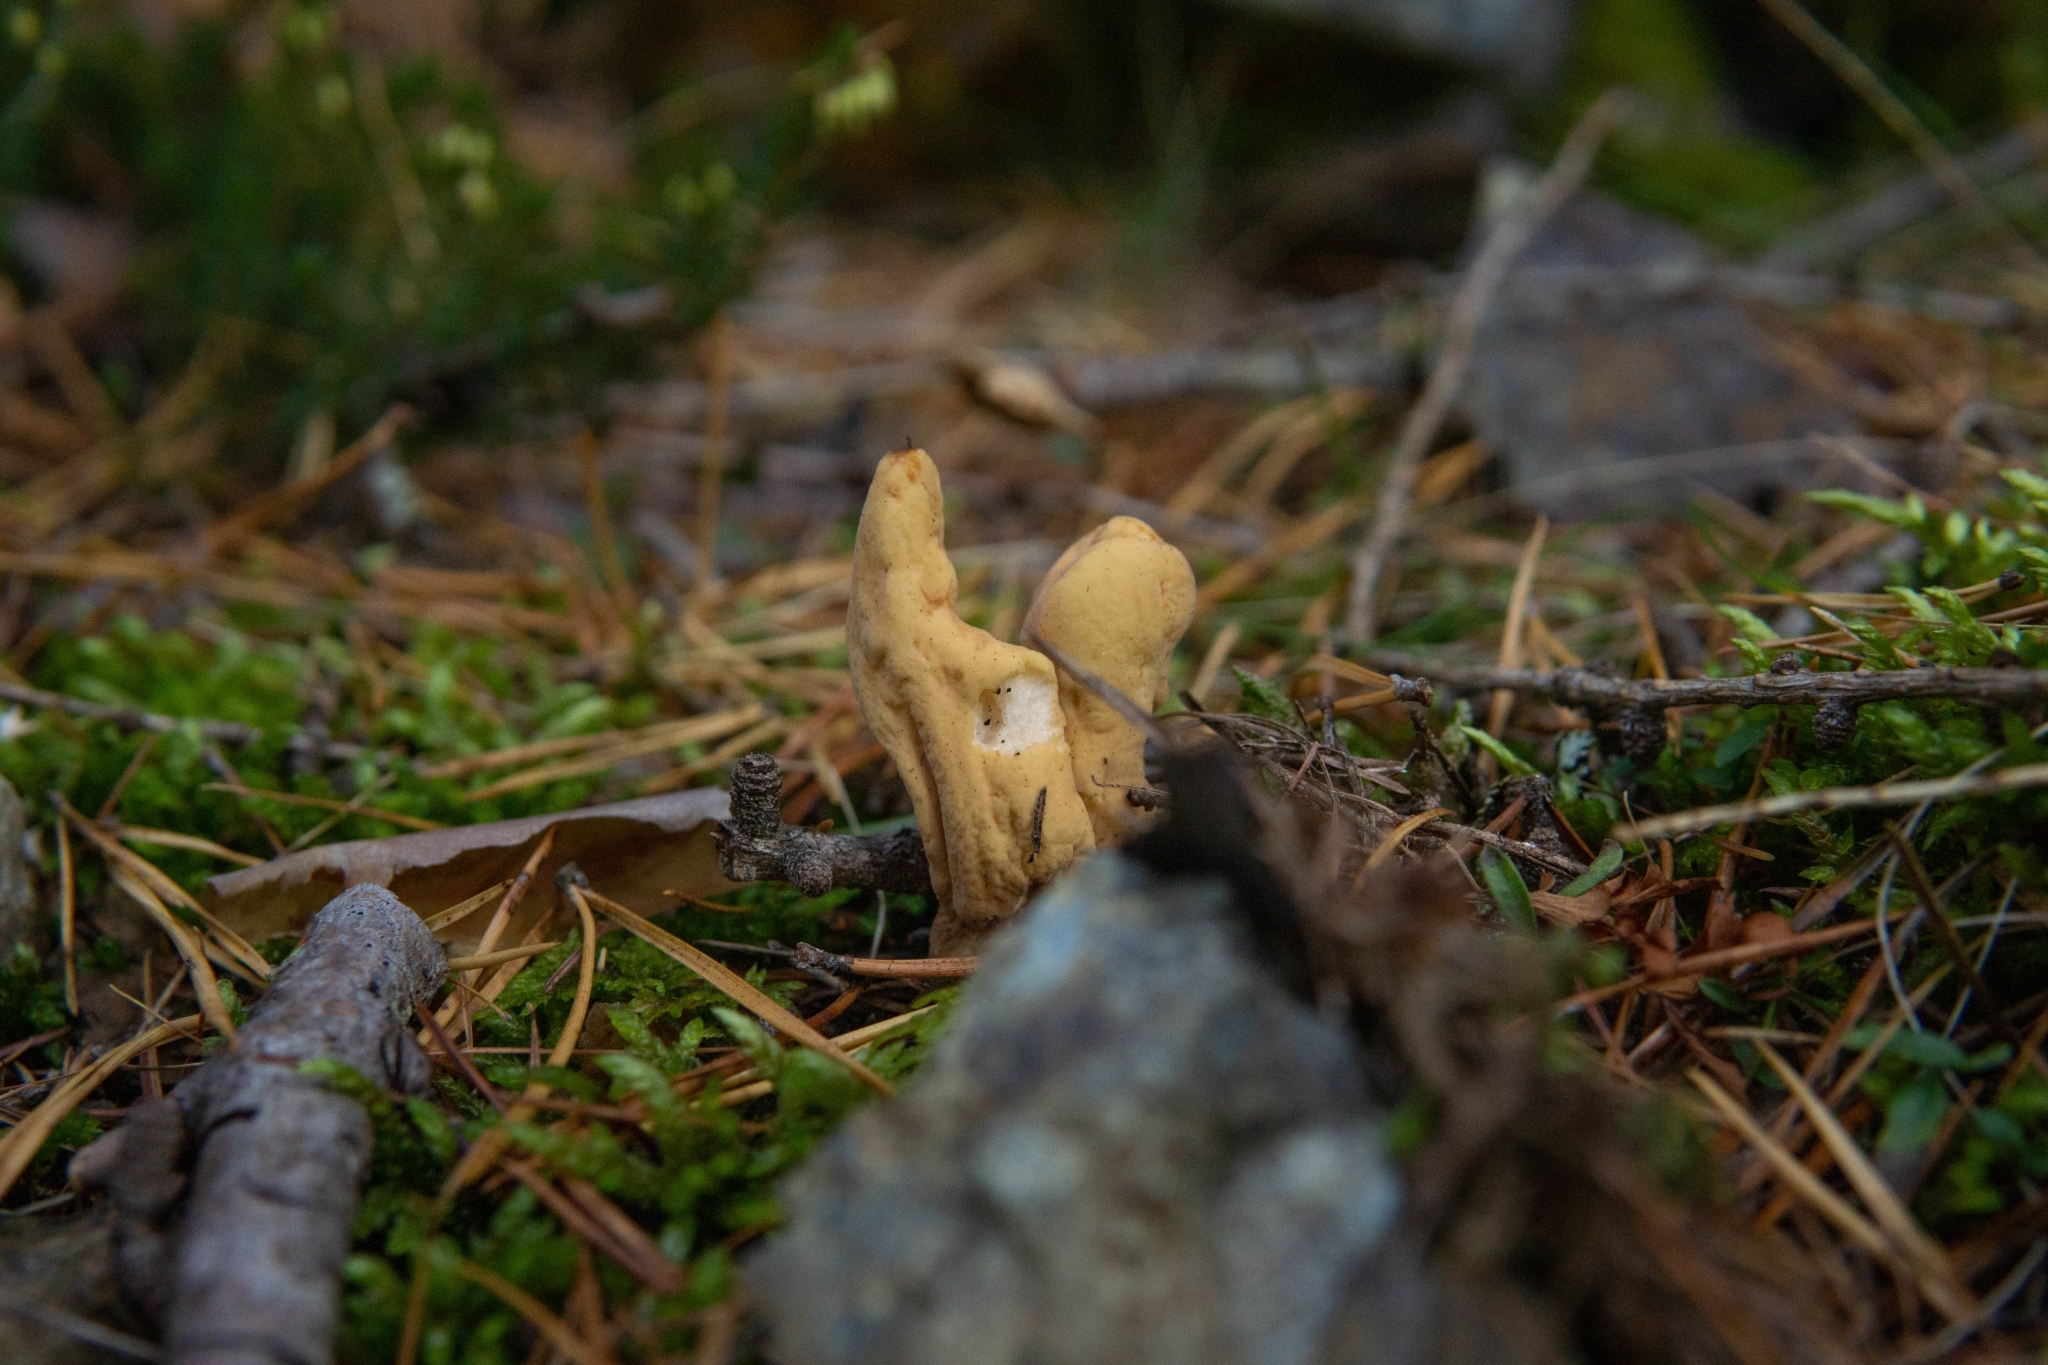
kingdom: Fungi
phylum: Basidiomycota
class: Agaricomycetes
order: Gomphales
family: Clavariadelphaceae
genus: Clavariadelphus
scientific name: Clavariadelphus pistillaris
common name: Giant club
